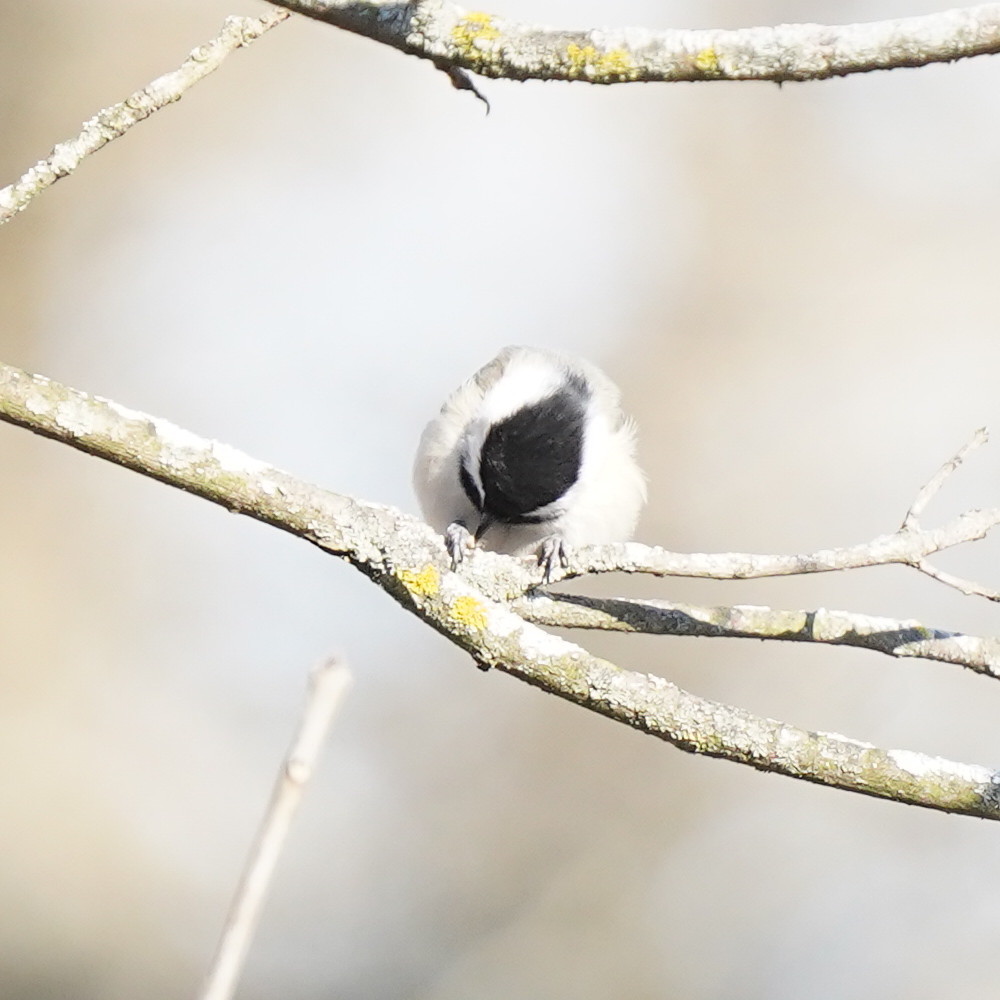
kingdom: Animalia
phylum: Chordata
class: Aves
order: Passeriformes
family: Paridae
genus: Poecile
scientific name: Poecile atricapillus
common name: Black-capped chickadee
